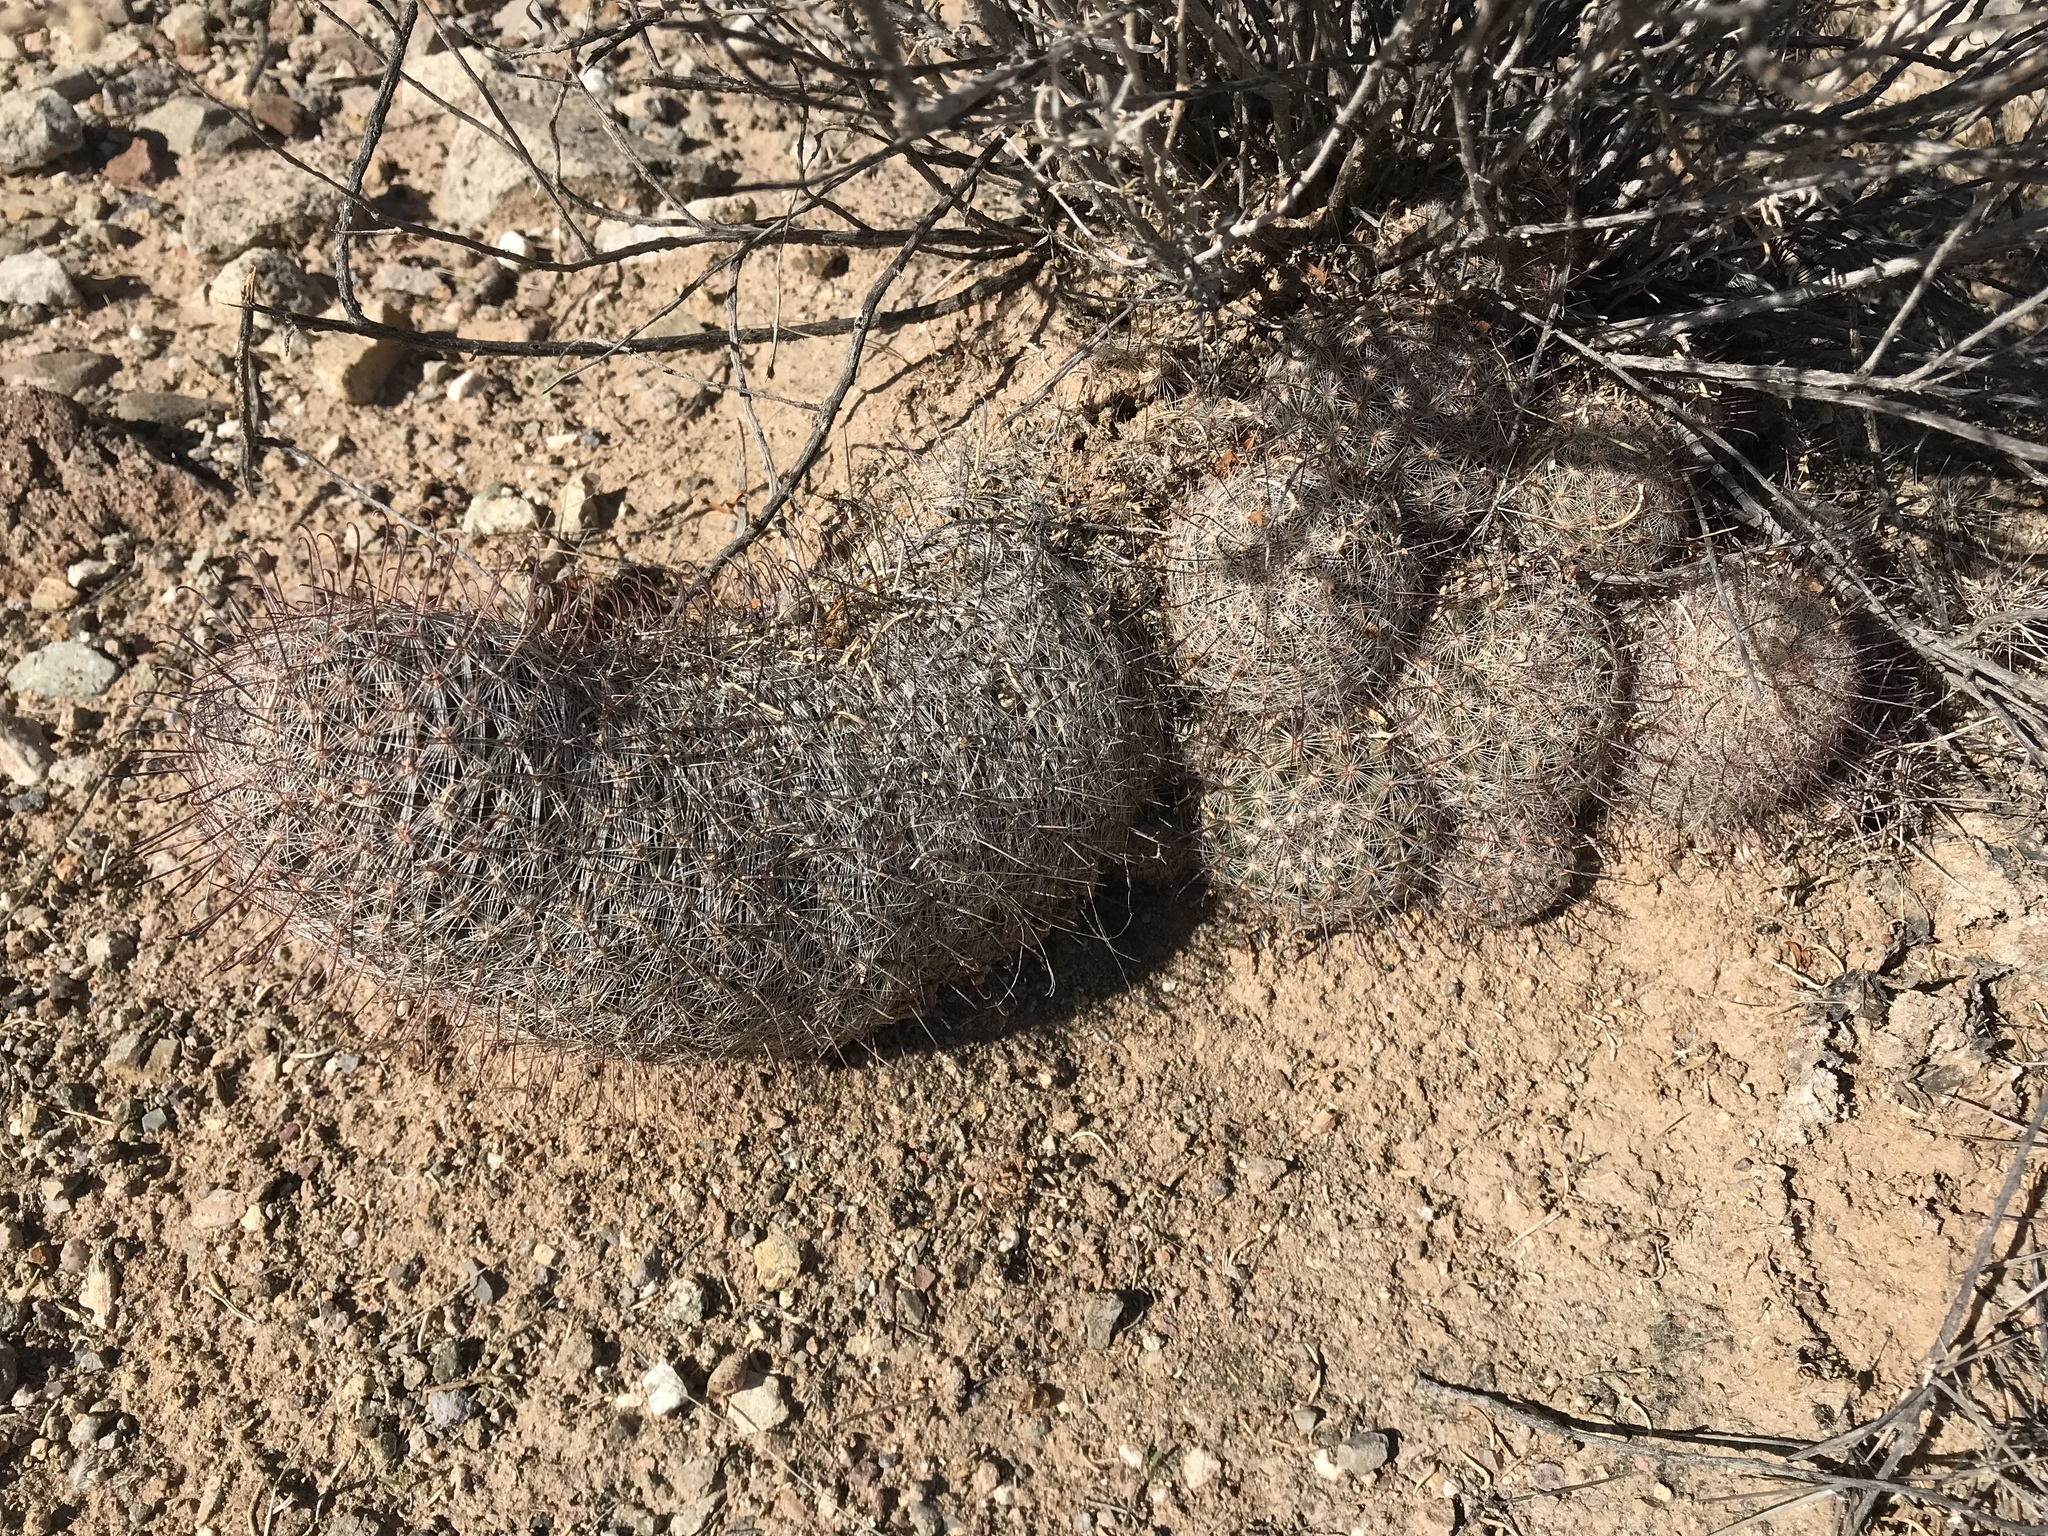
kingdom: Plantae
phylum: Tracheophyta
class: Magnoliopsida
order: Caryophyllales
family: Cactaceae
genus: Cochemiea
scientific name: Cochemiea grahamii
